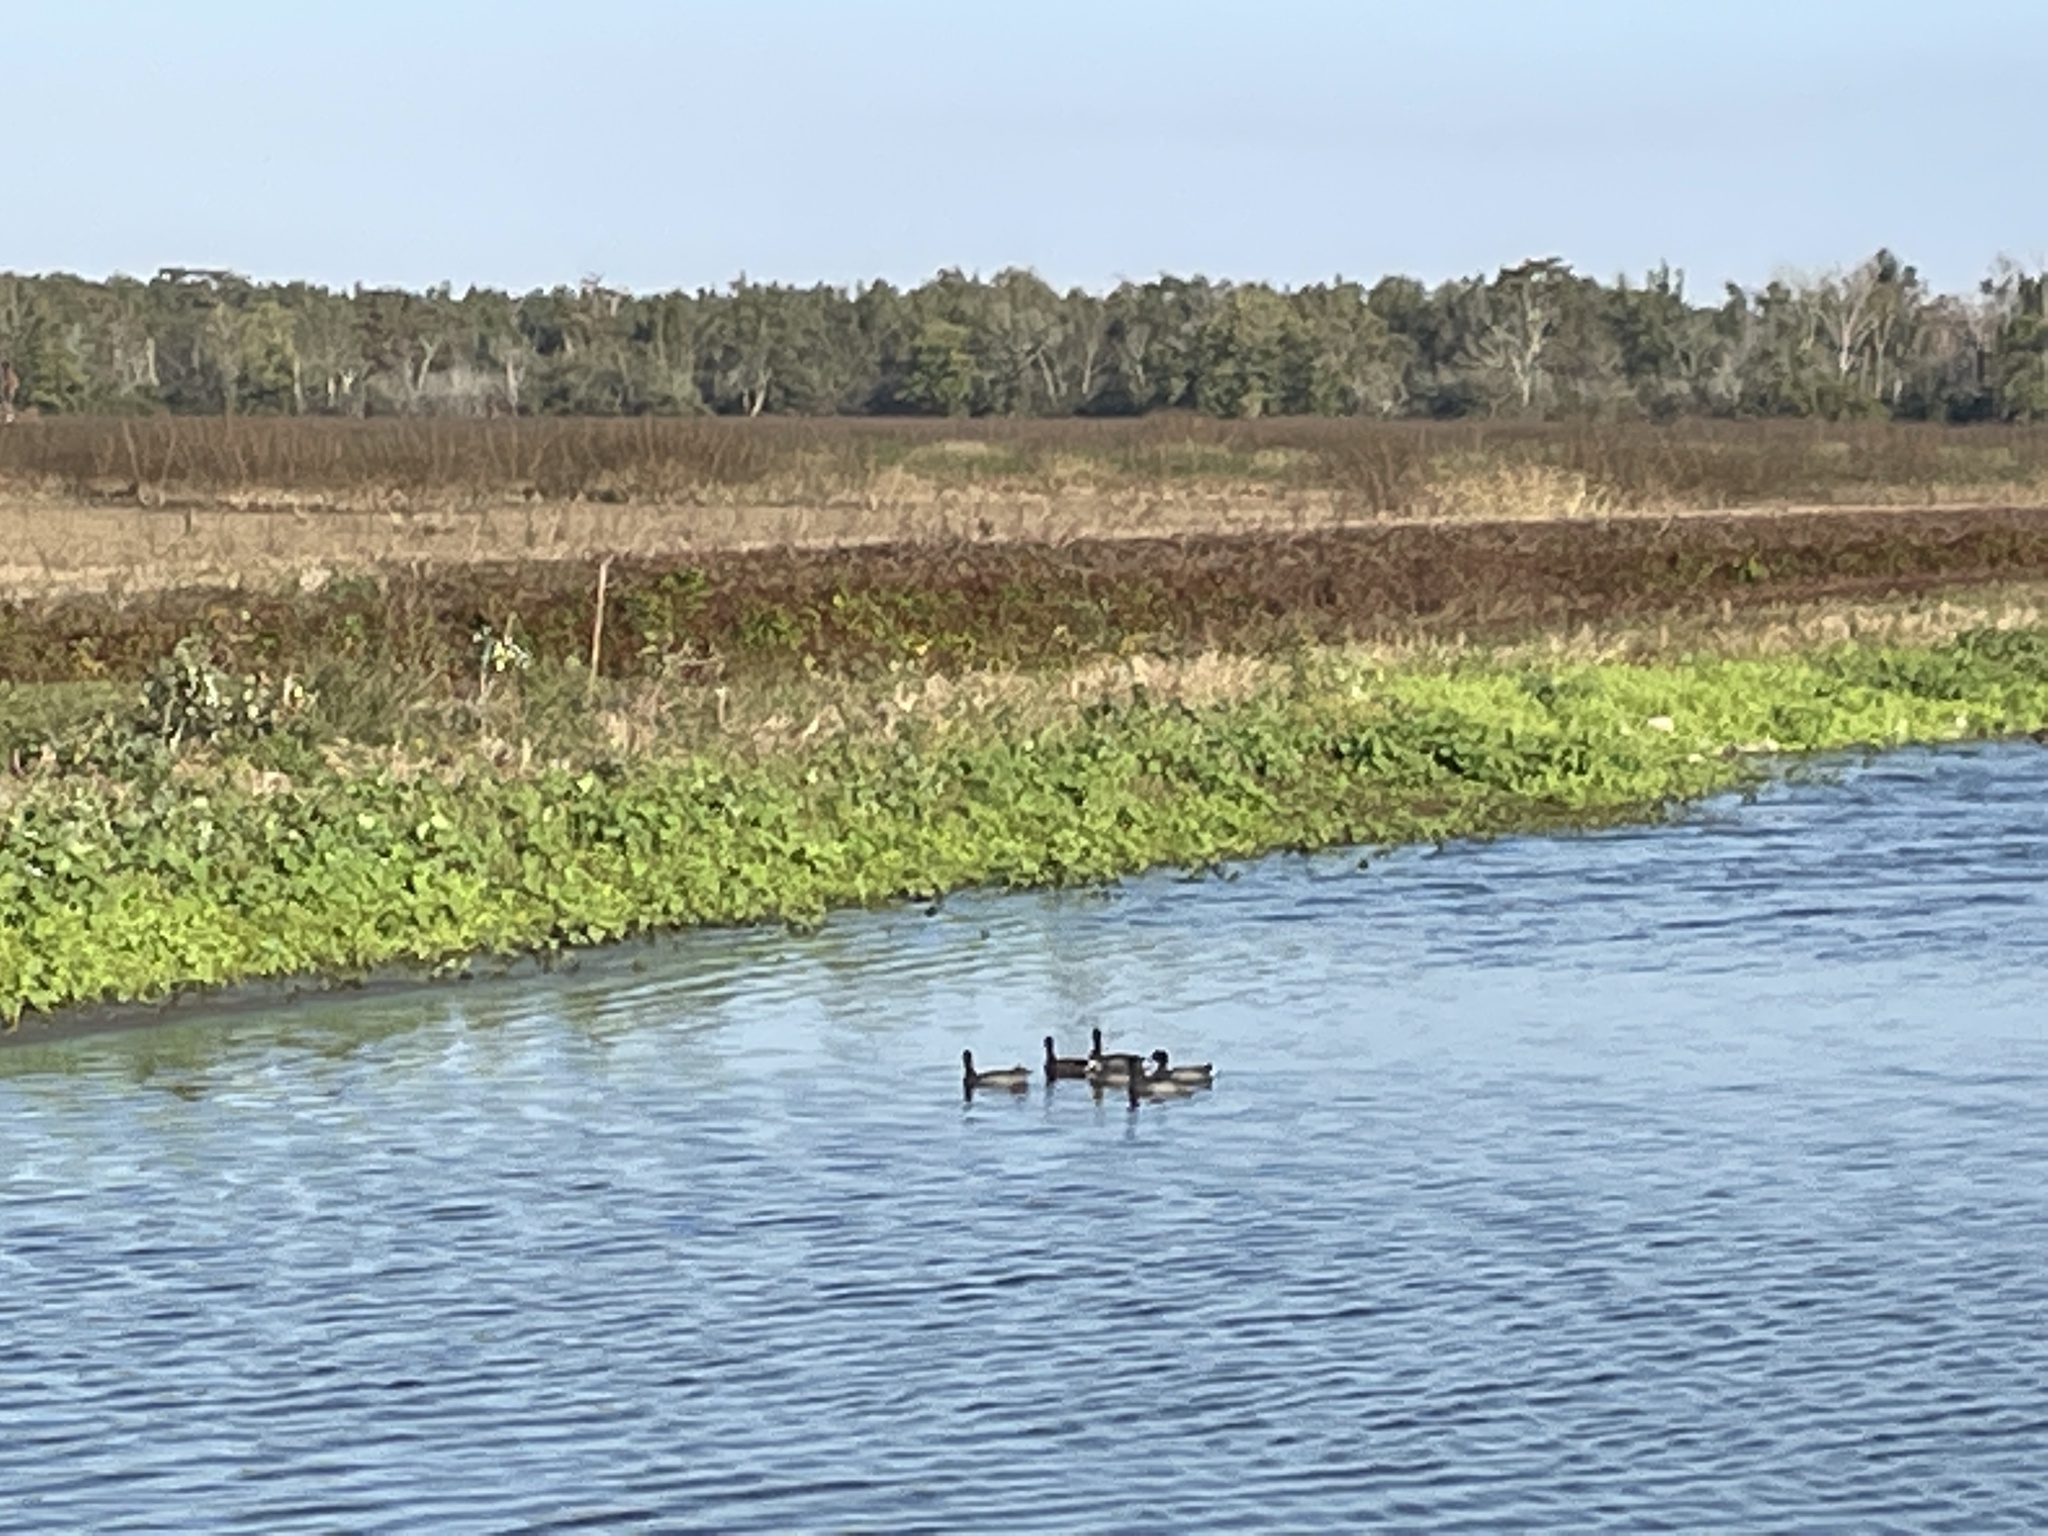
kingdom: Animalia
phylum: Chordata
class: Aves
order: Gruiformes
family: Rallidae
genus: Fulica
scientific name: Fulica americana
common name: American coot
